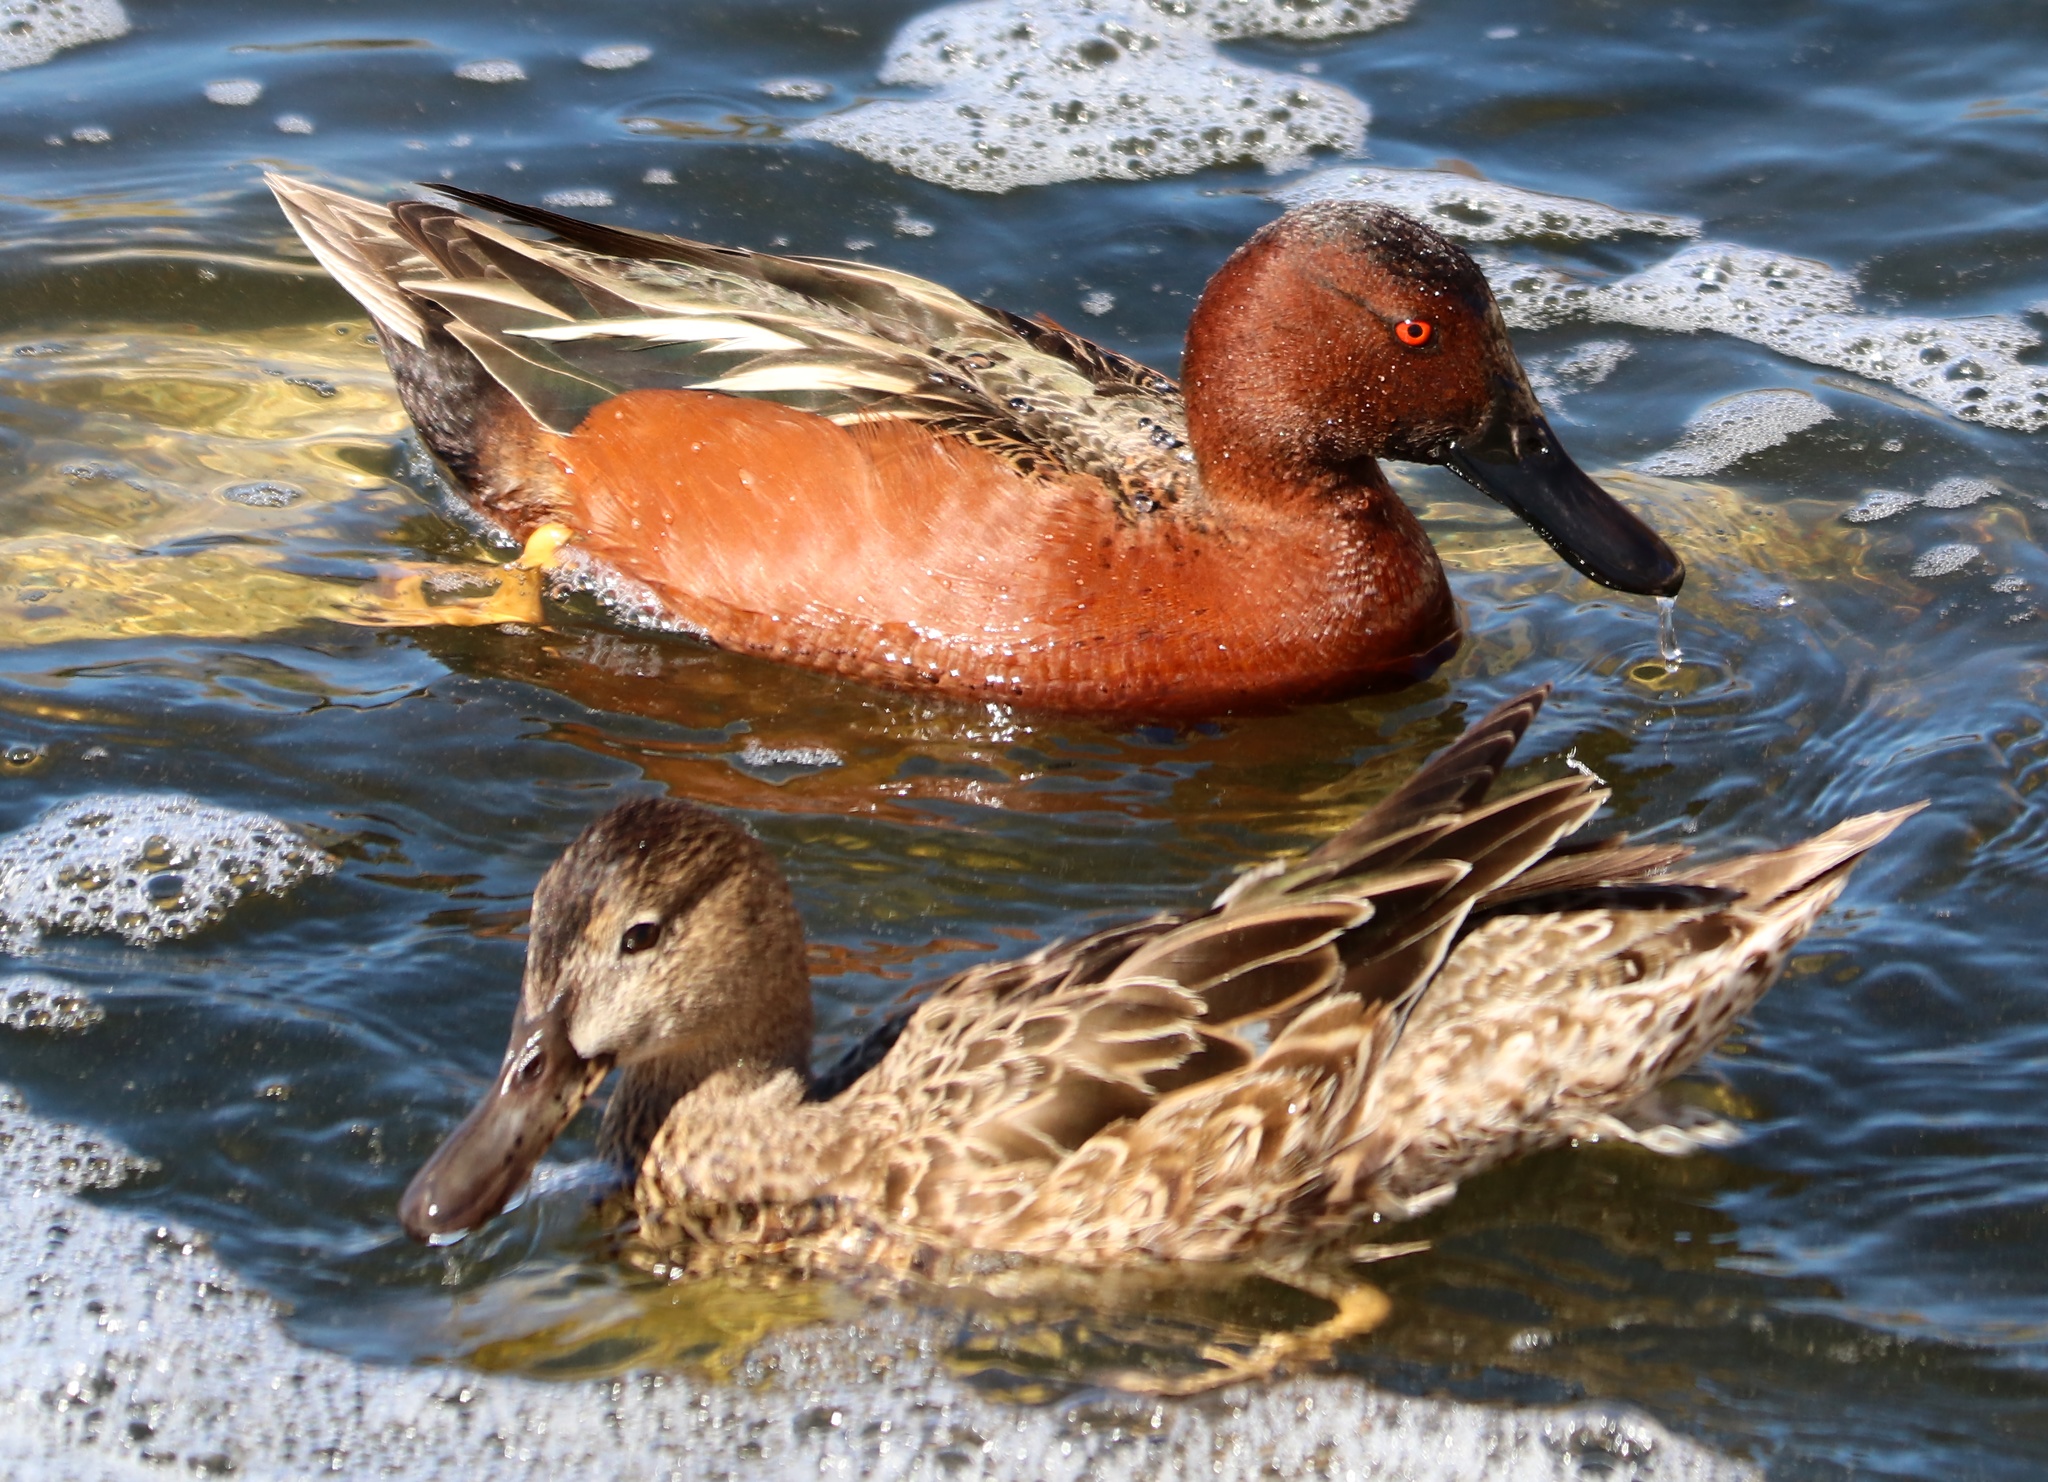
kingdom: Animalia
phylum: Chordata
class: Aves
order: Anseriformes
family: Anatidae
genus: Spatula
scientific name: Spatula cyanoptera
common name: Cinnamon teal
